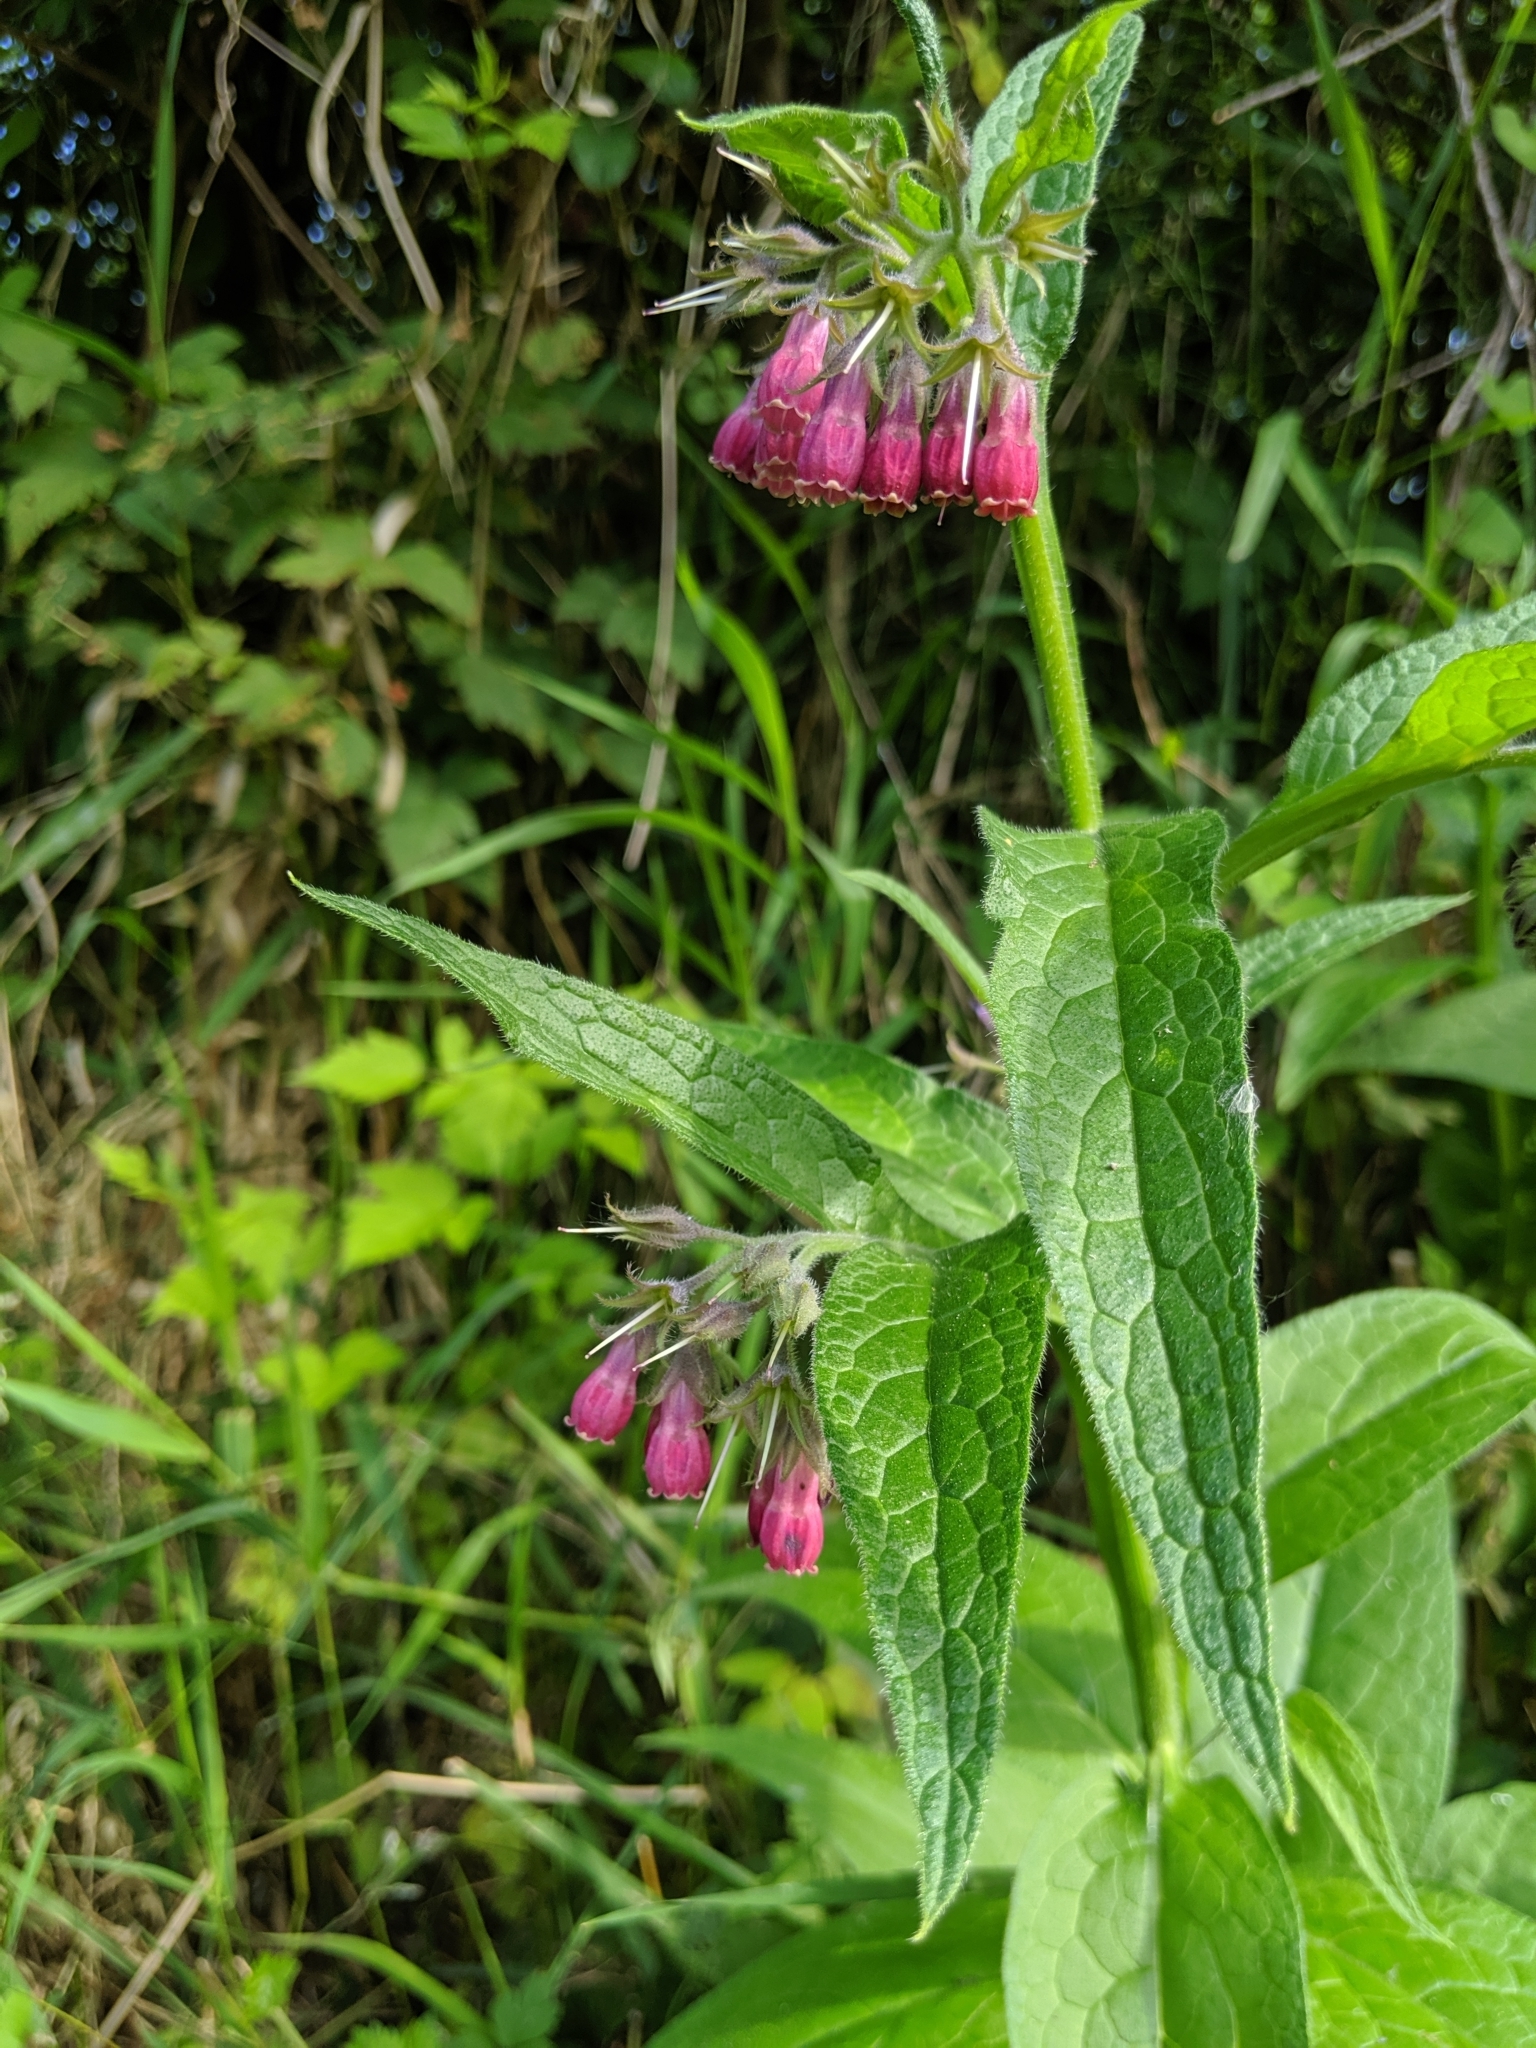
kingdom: Plantae
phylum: Tracheophyta
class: Magnoliopsida
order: Boraginales
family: Boraginaceae
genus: Symphytum
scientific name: Symphytum officinale
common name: Common comfrey
